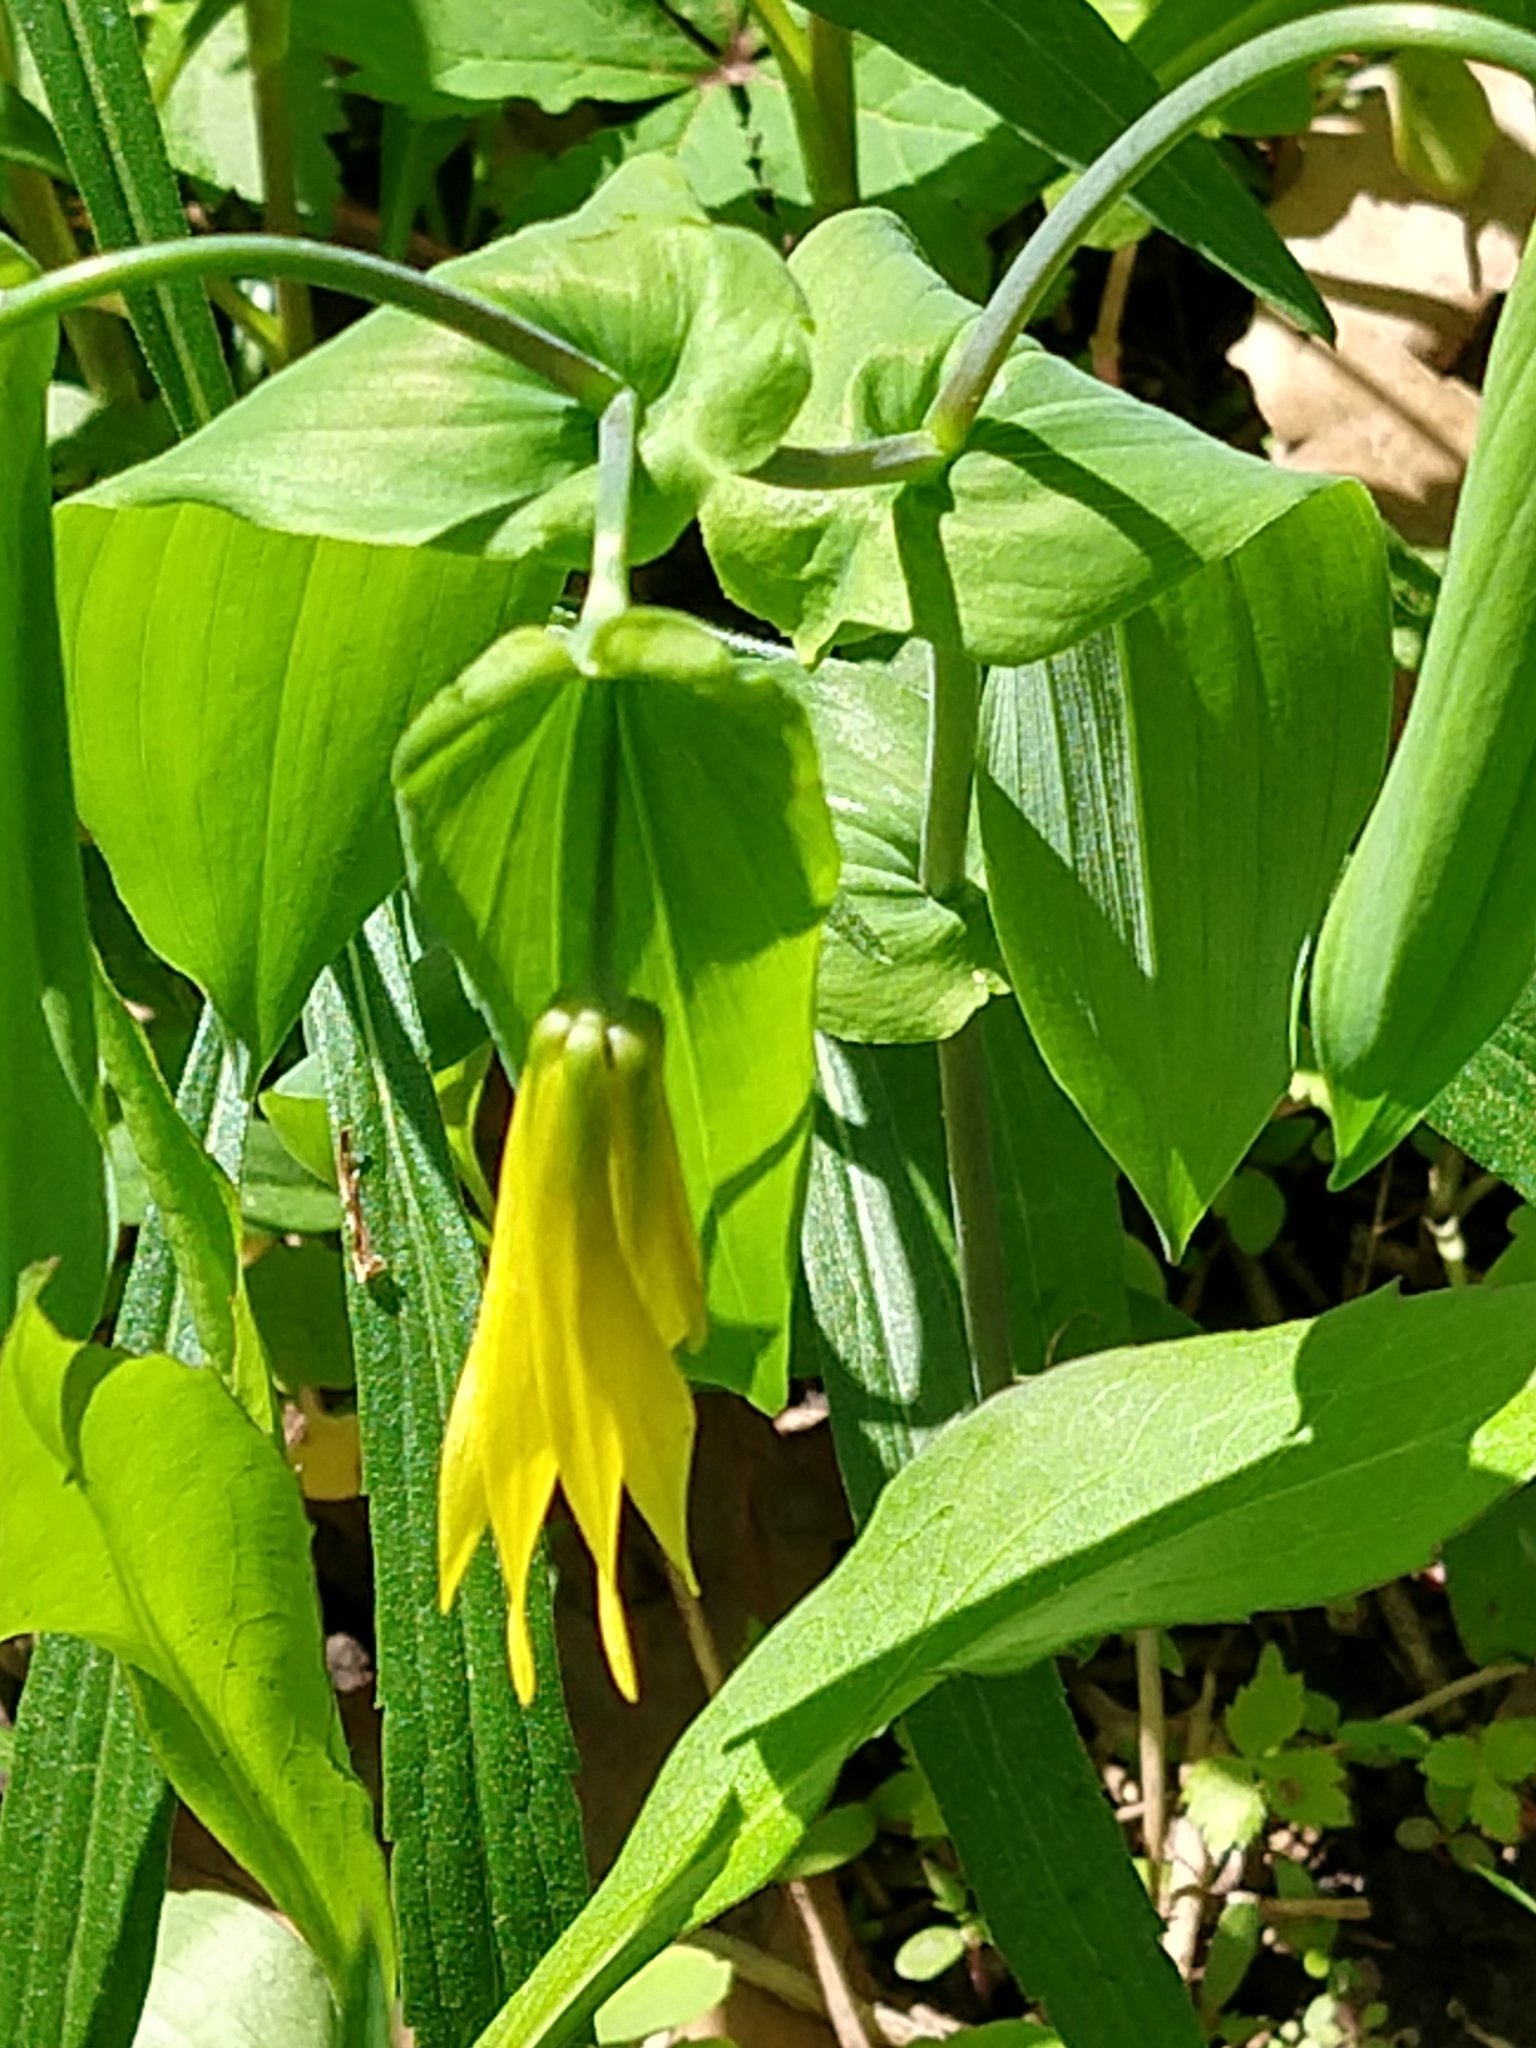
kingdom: Plantae
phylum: Tracheophyta
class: Liliopsida
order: Liliales
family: Colchicaceae
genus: Uvularia
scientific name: Uvularia grandiflora
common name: Bellwort
